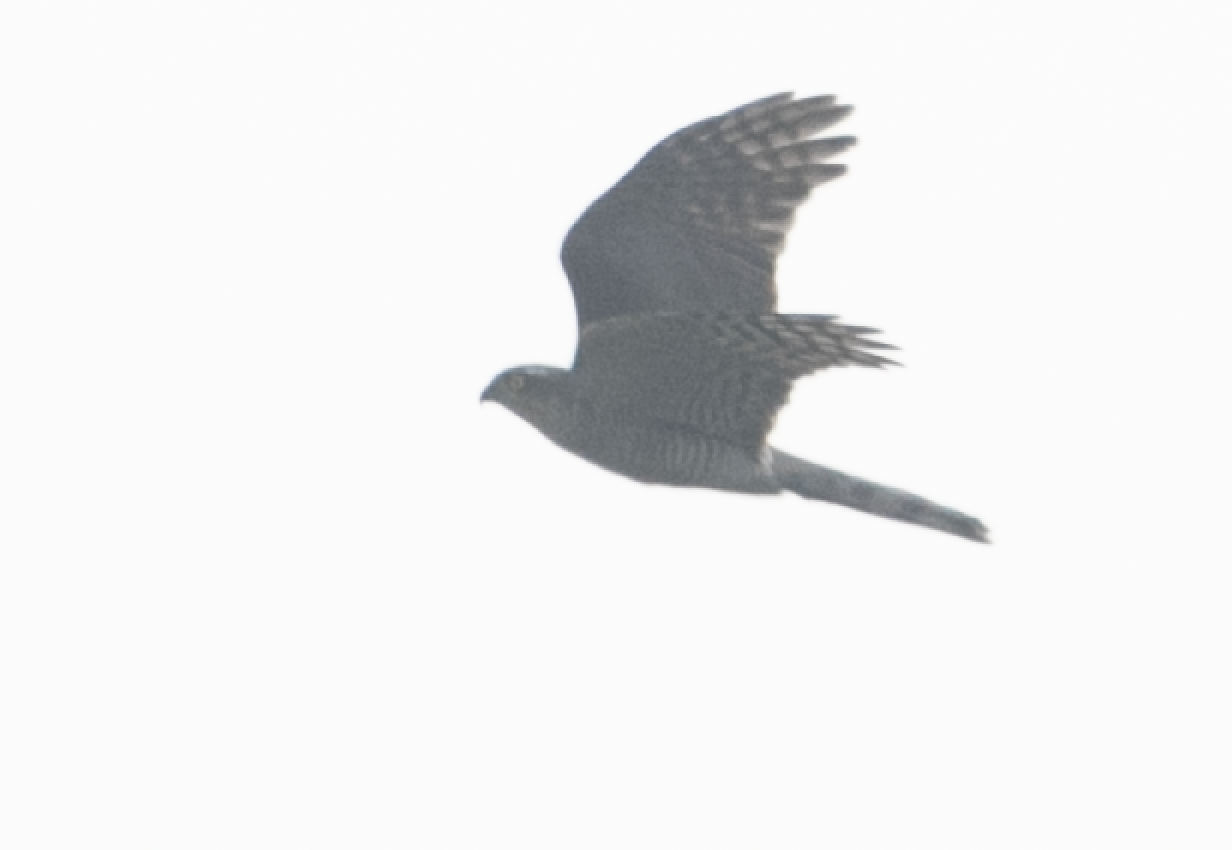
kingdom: Animalia
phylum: Chordata
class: Aves
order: Accipitriformes
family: Accipitridae
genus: Accipiter
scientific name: Accipiter nisus
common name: Eurasian sparrowhawk
